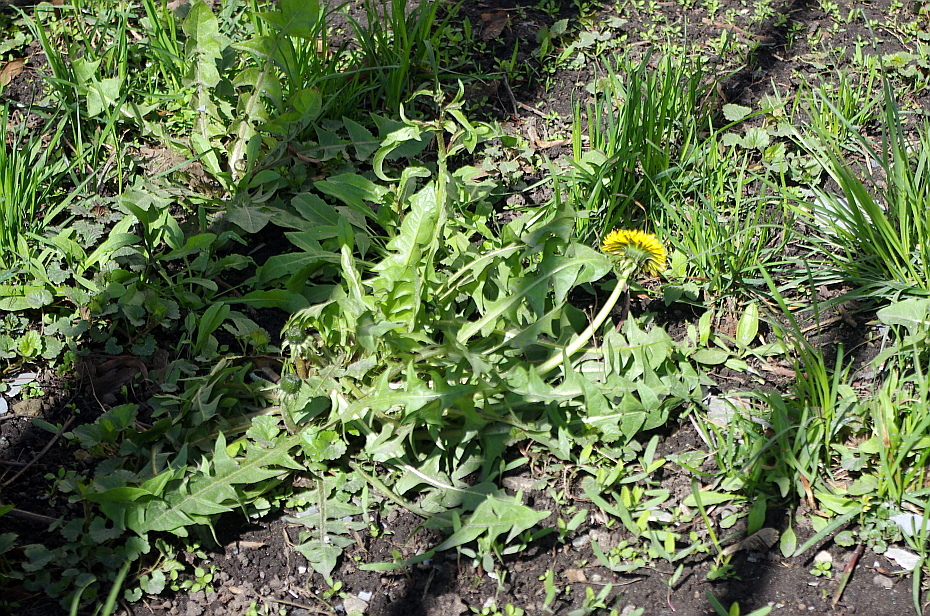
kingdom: Plantae
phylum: Tracheophyta
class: Magnoliopsida
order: Asterales
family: Asteraceae
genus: Taraxacum
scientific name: Taraxacum officinale
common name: Common dandelion
